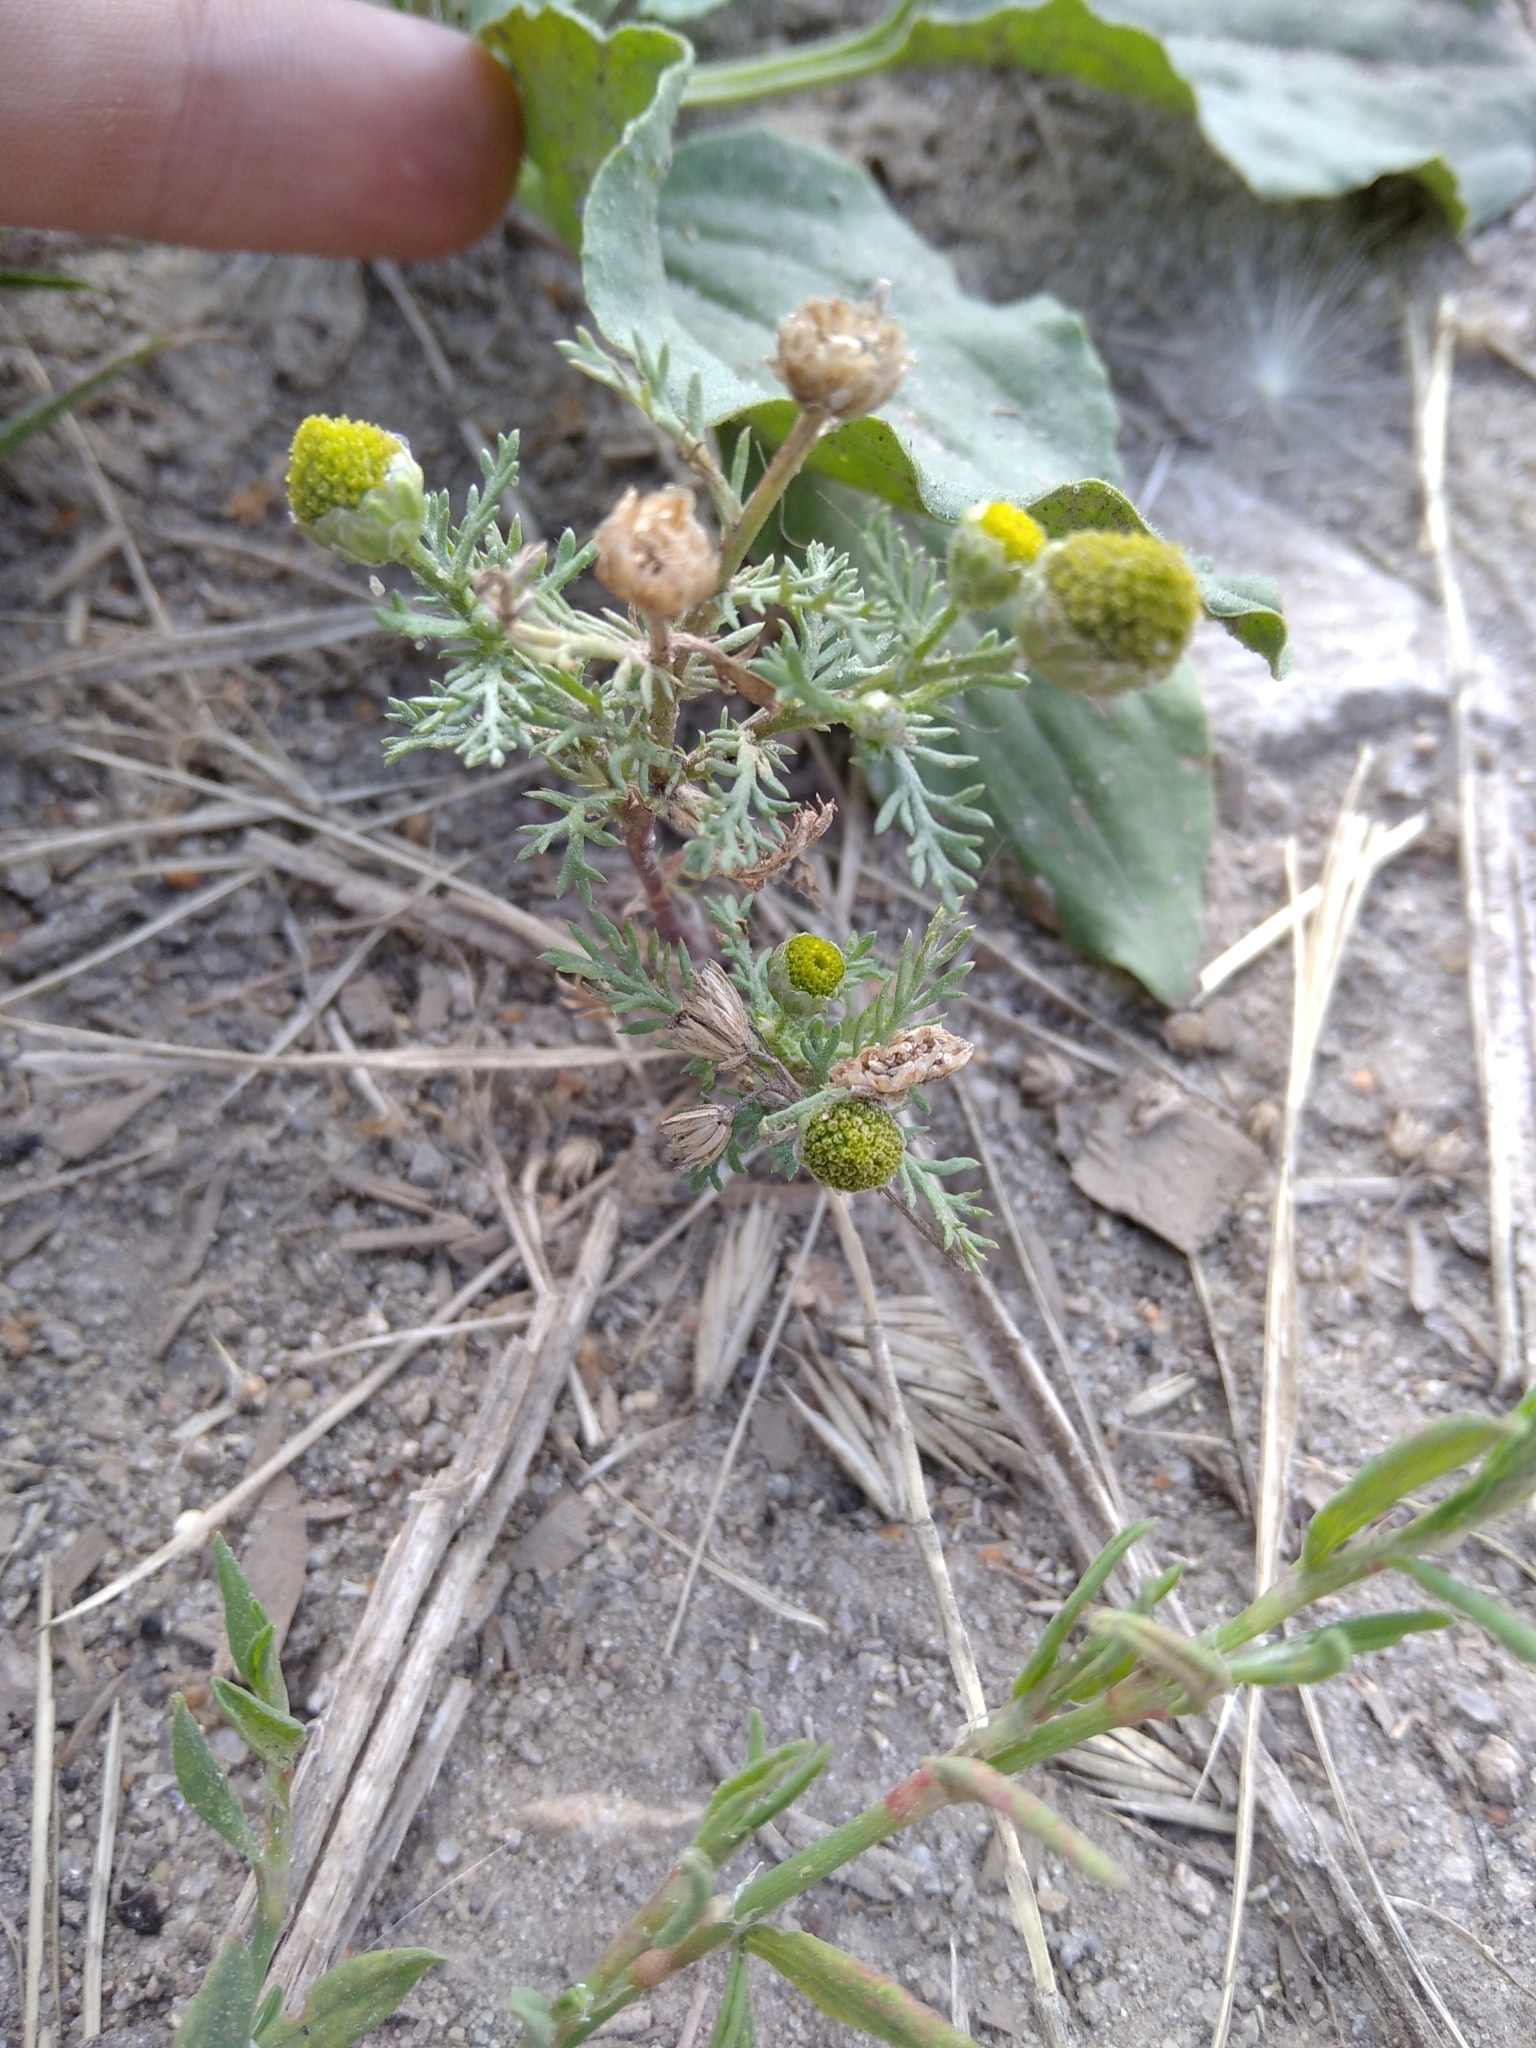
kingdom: Plantae
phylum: Tracheophyta
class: Magnoliopsida
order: Asterales
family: Asteraceae
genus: Matricaria
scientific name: Matricaria discoidea
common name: Disc mayweed
